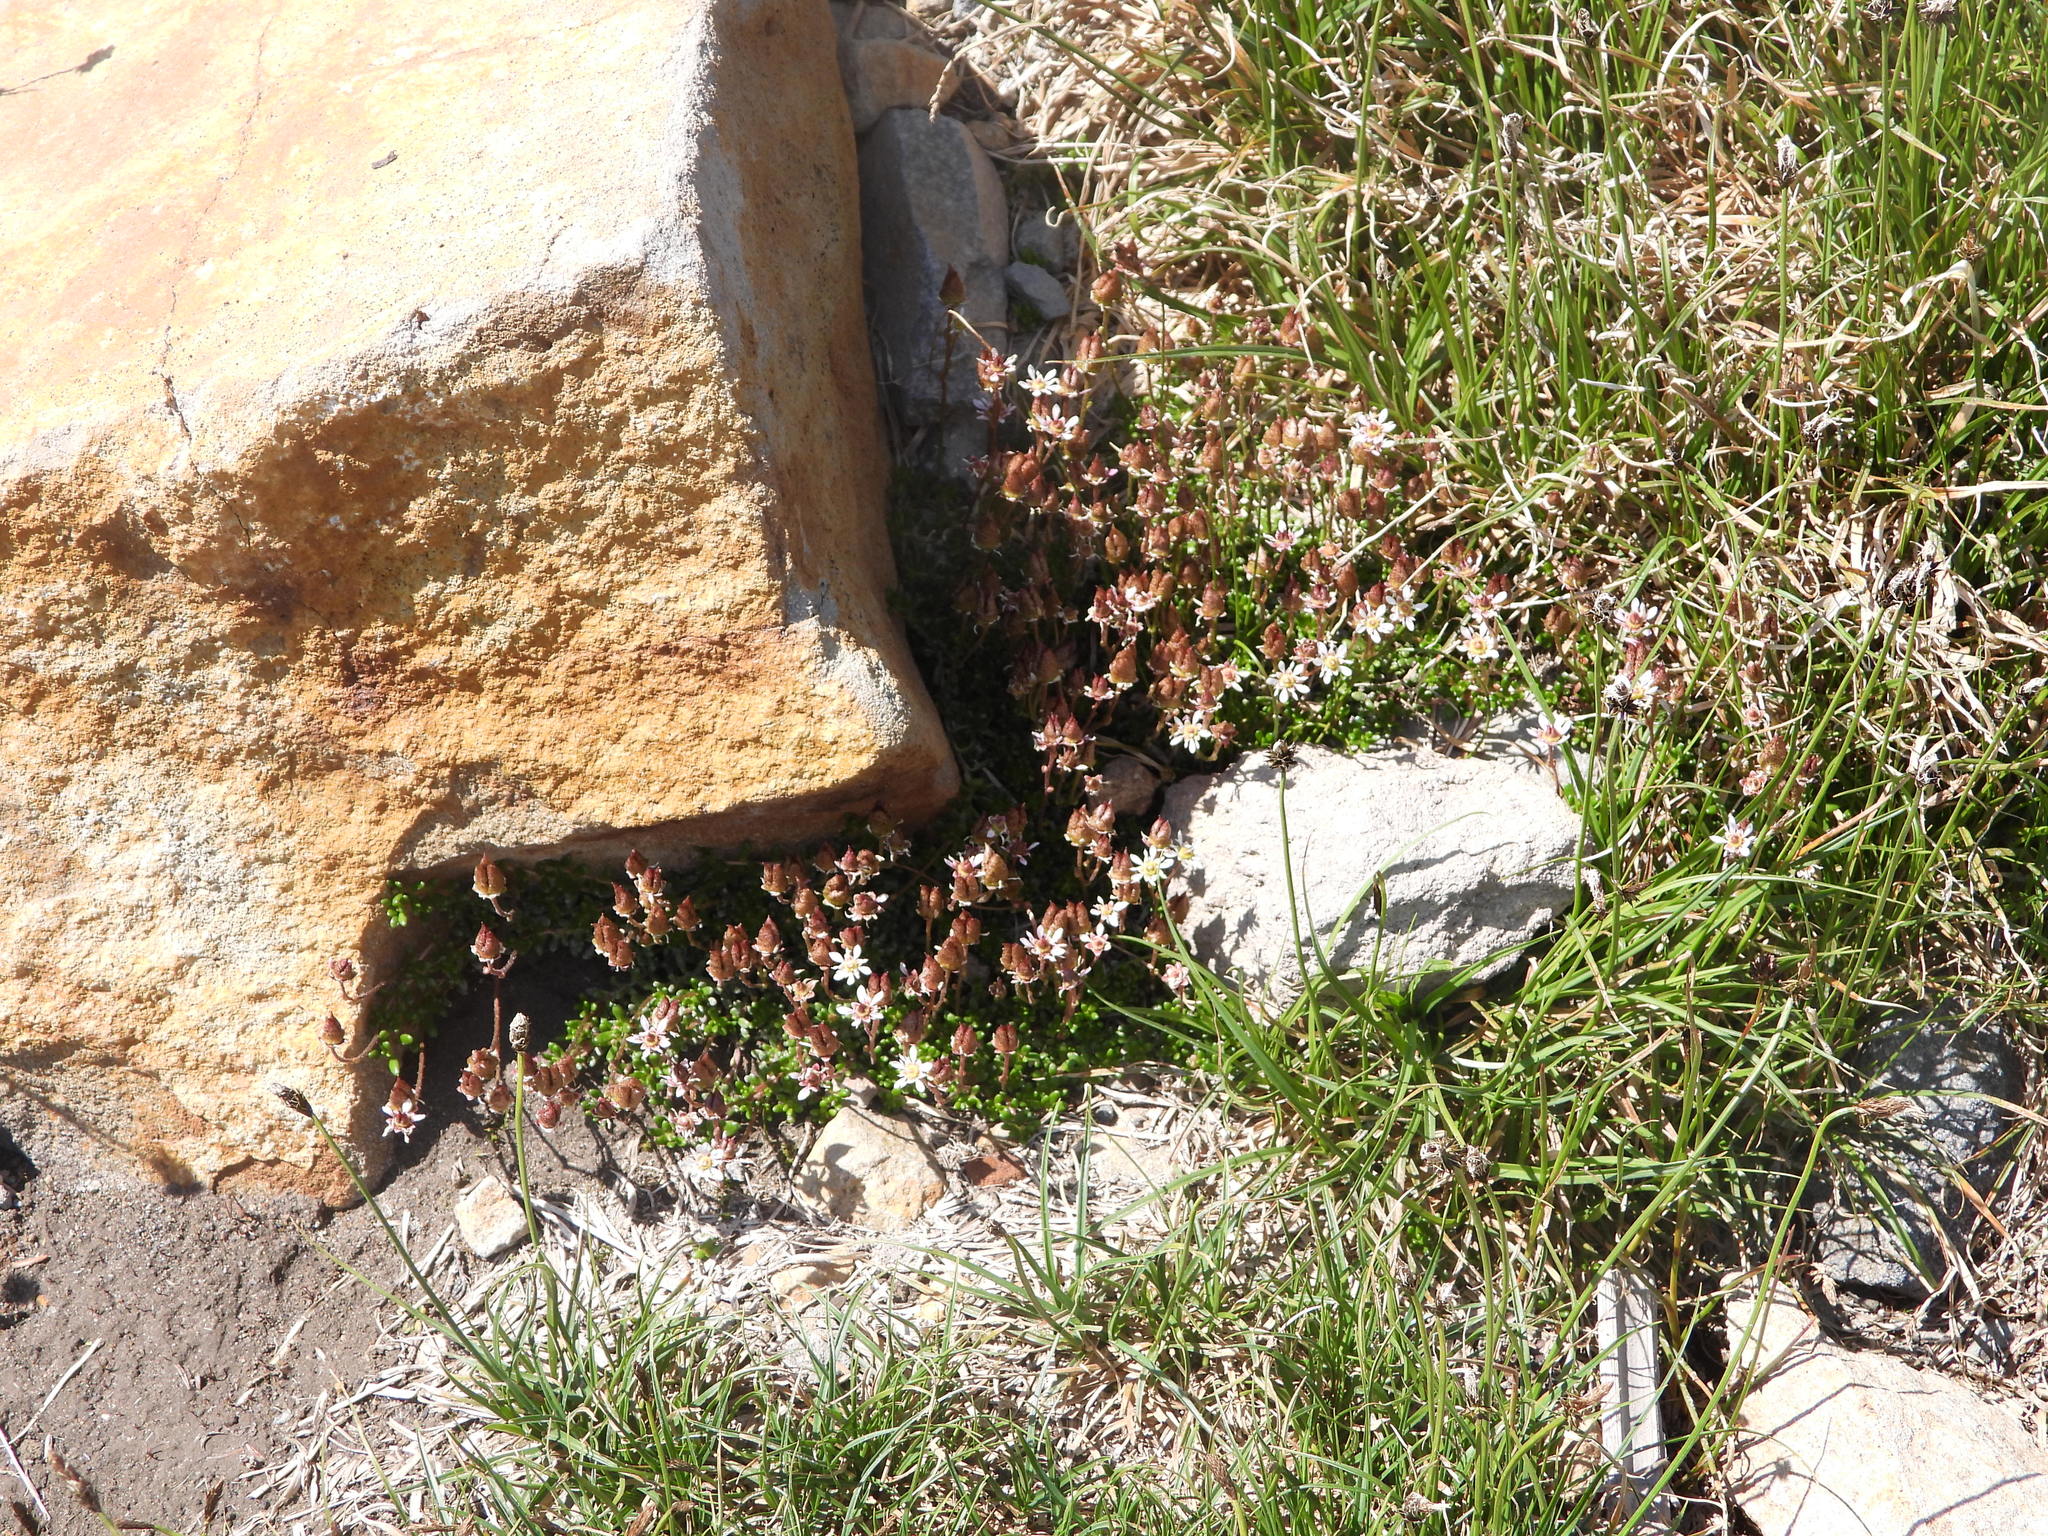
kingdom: Plantae
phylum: Tracheophyta
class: Magnoliopsida
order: Saxifragales
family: Saxifragaceae
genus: Micranthes
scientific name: Micranthes tolmiei
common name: Tolmie's saxifrage
